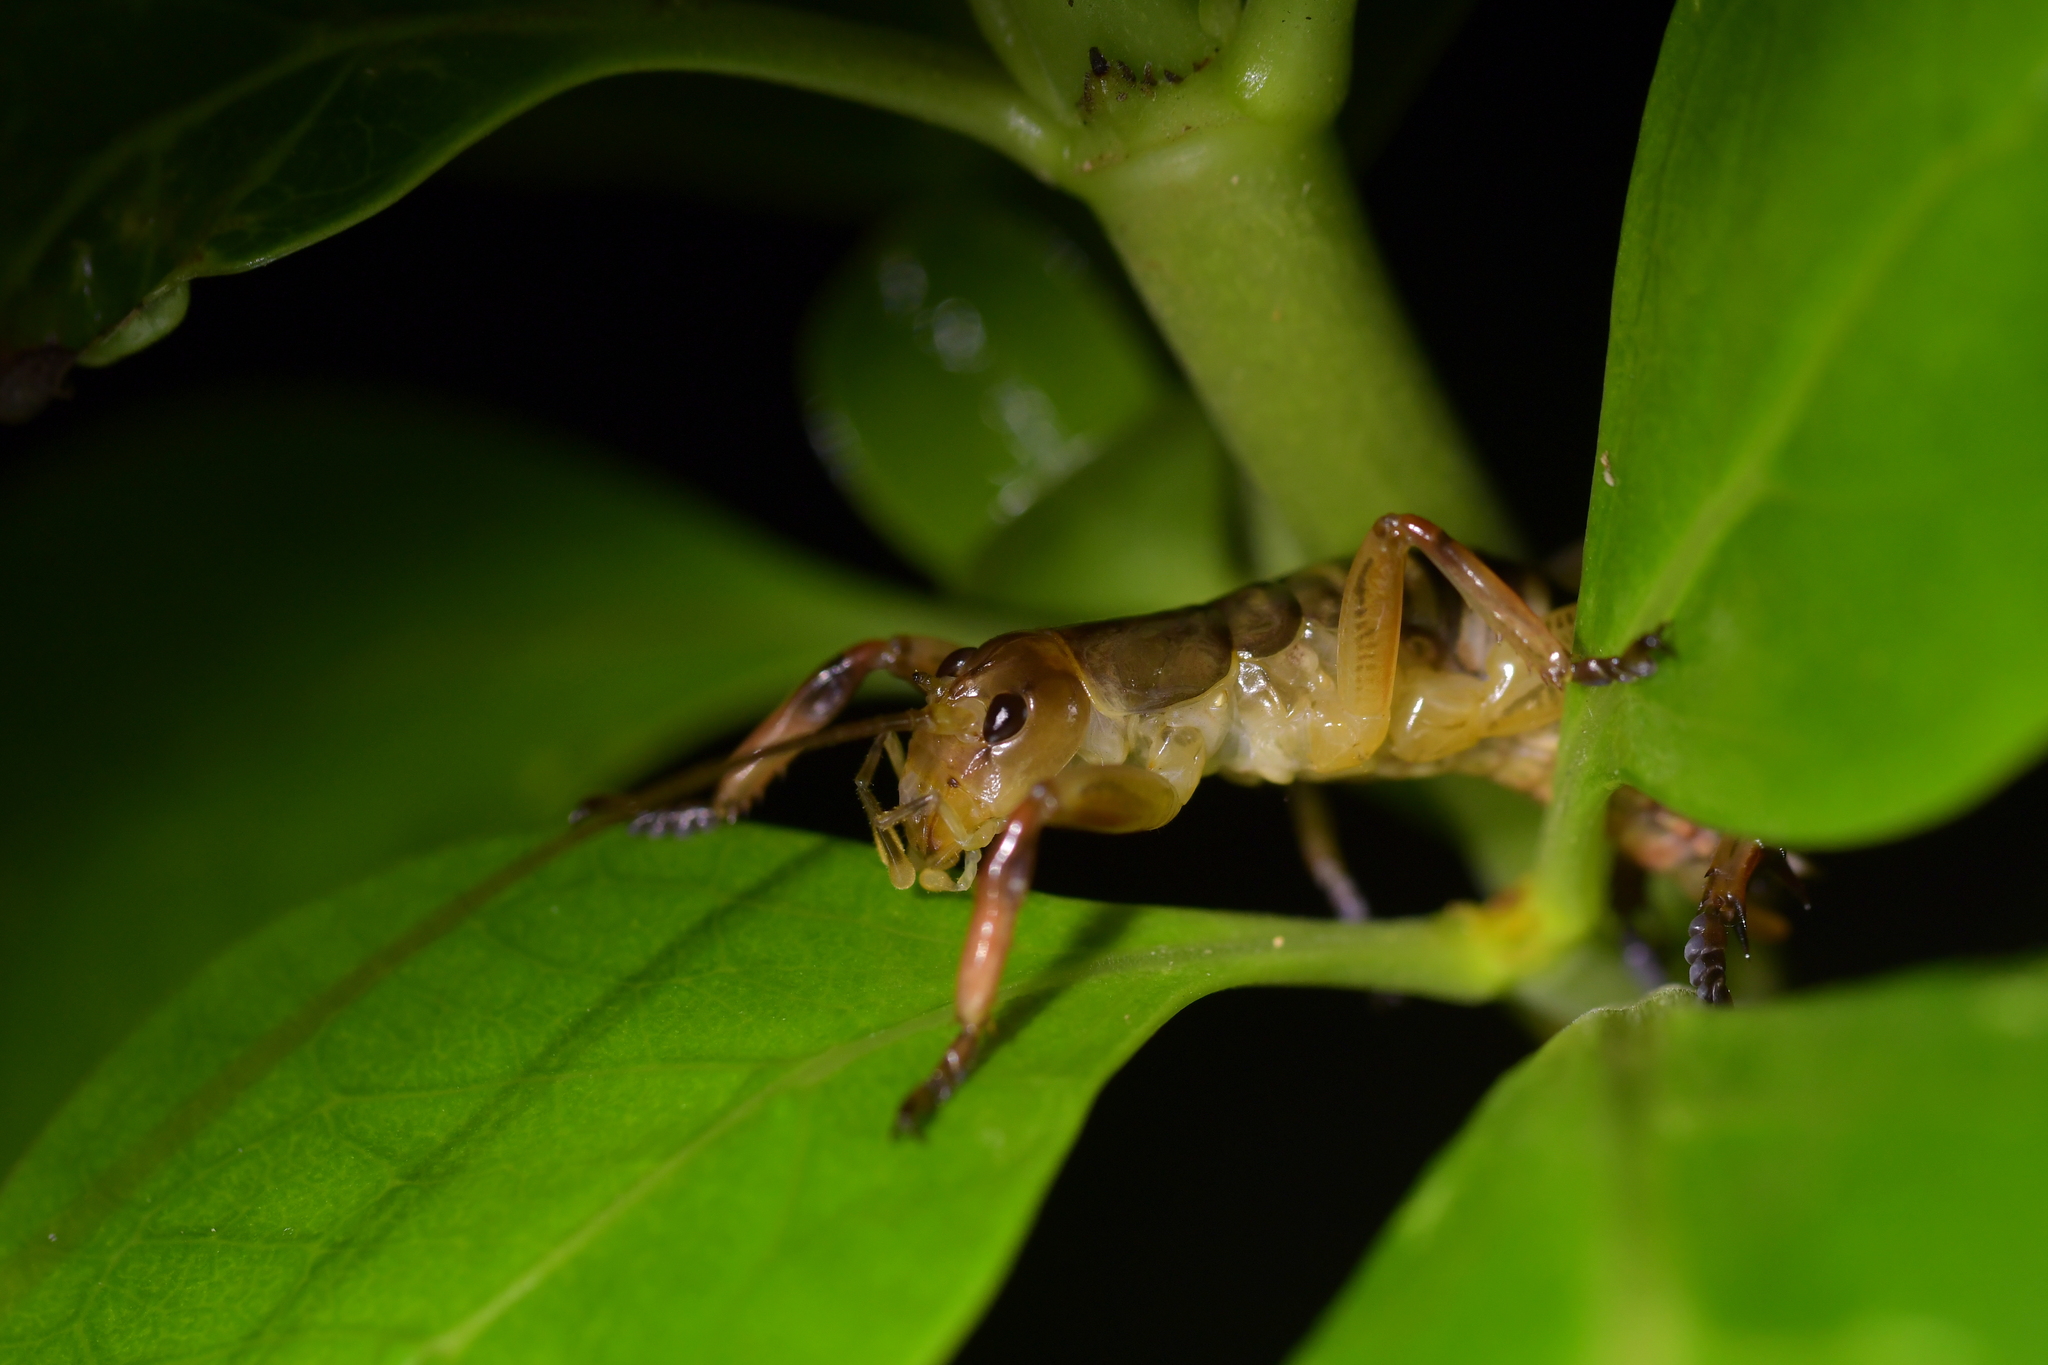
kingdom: Animalia
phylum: Arthropoda
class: Insecta
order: Orthoptera
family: Anostostomatidae
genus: Hemideina
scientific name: Hemideina crassidens
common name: Wellington tree weta
